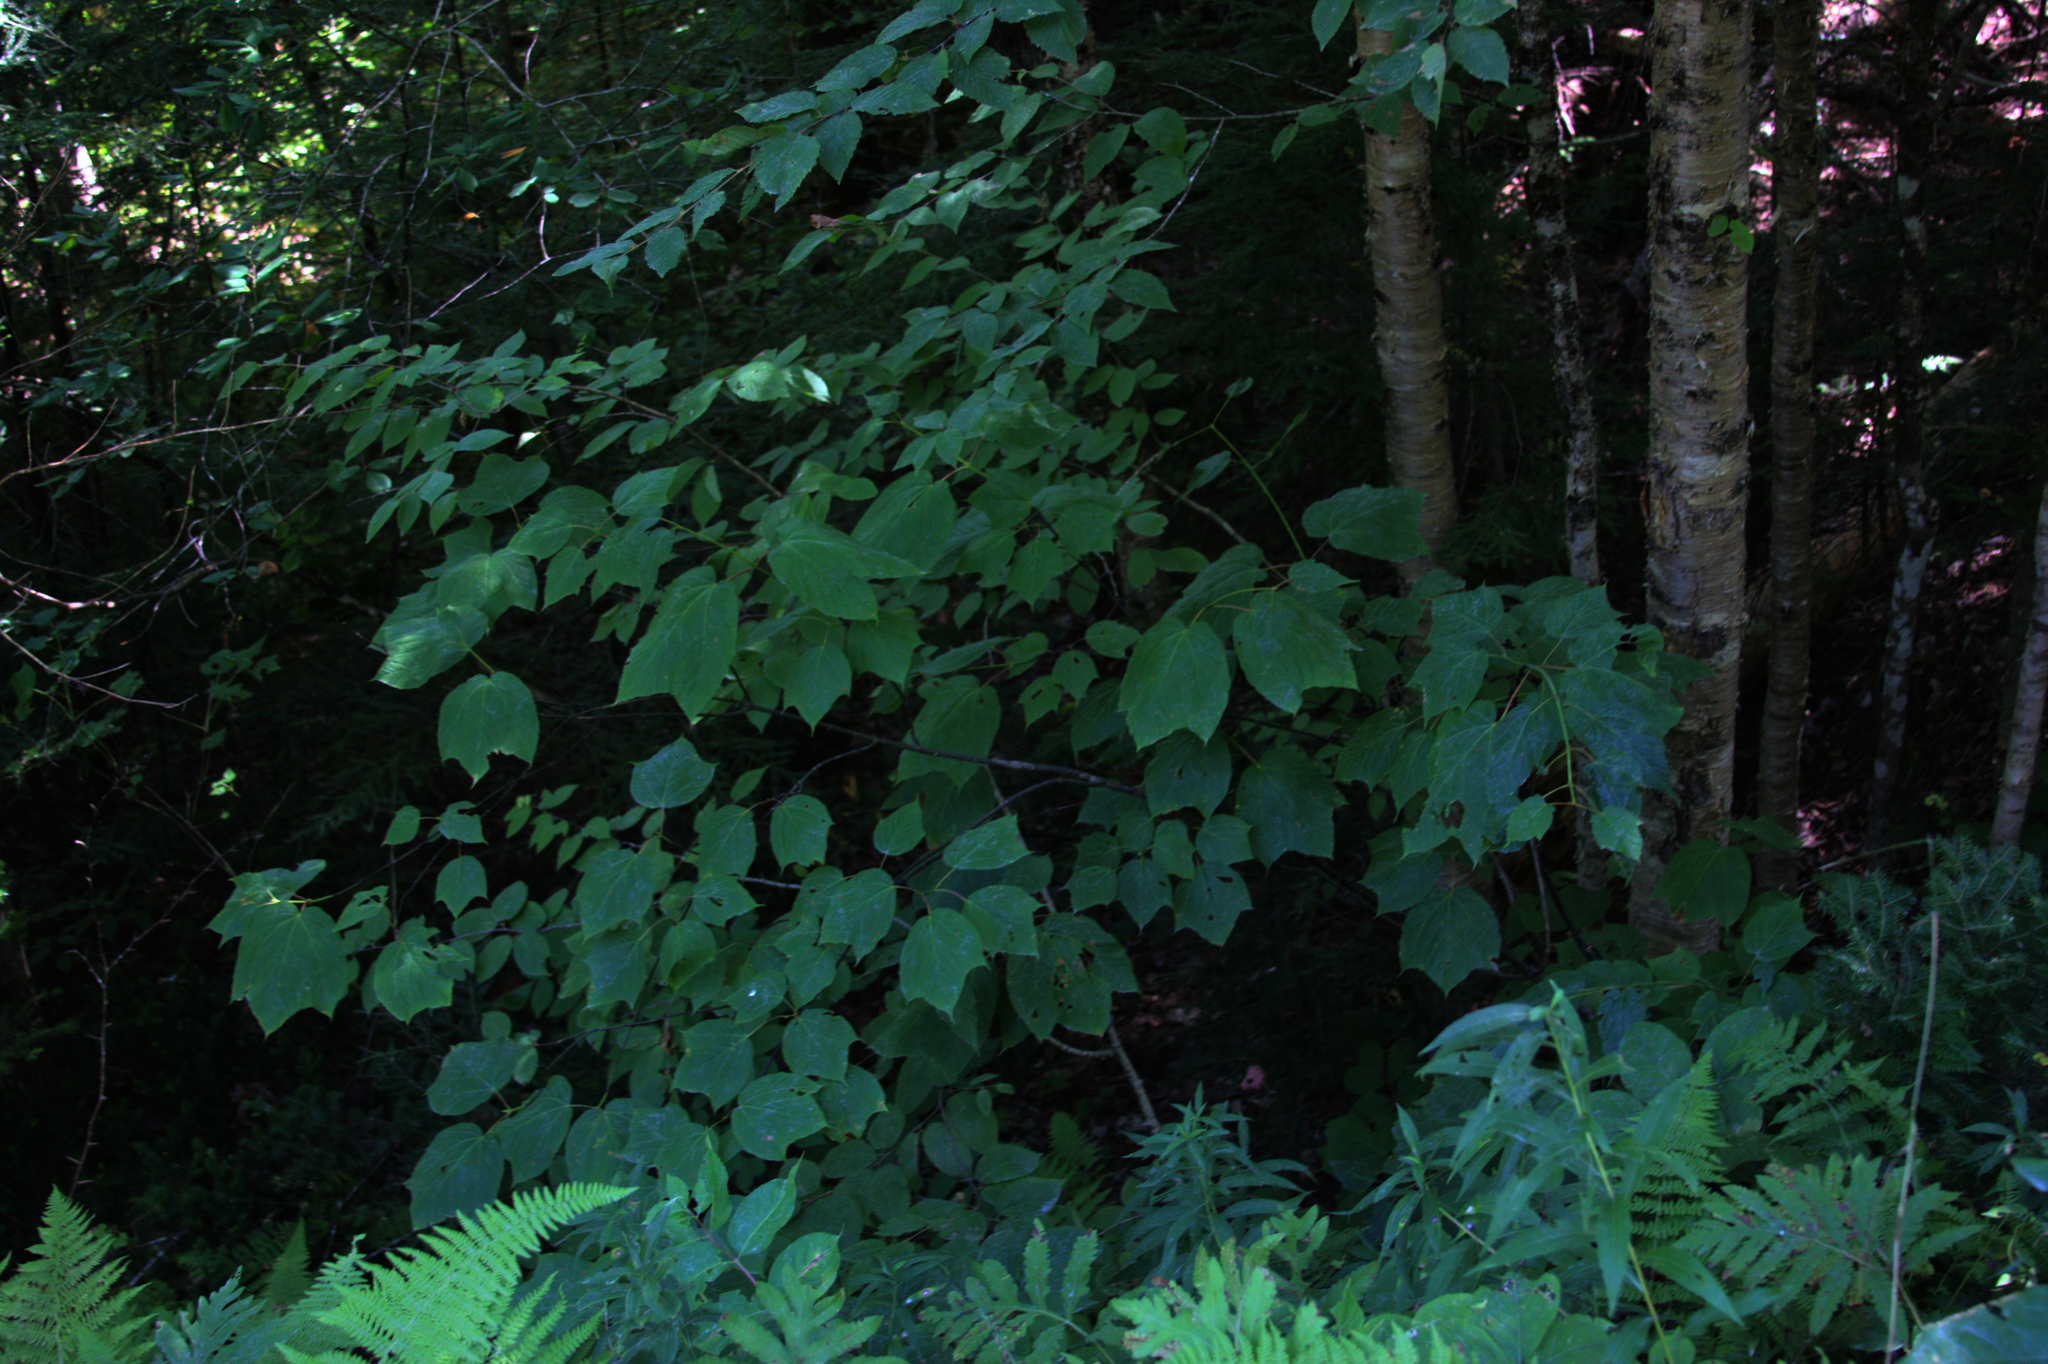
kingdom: Plantae
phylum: Tracheophyta
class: Magnoliopsida
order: Sapindales
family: Sapindaceae
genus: Acer
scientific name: Acer pensylvanicum
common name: Moosewood
